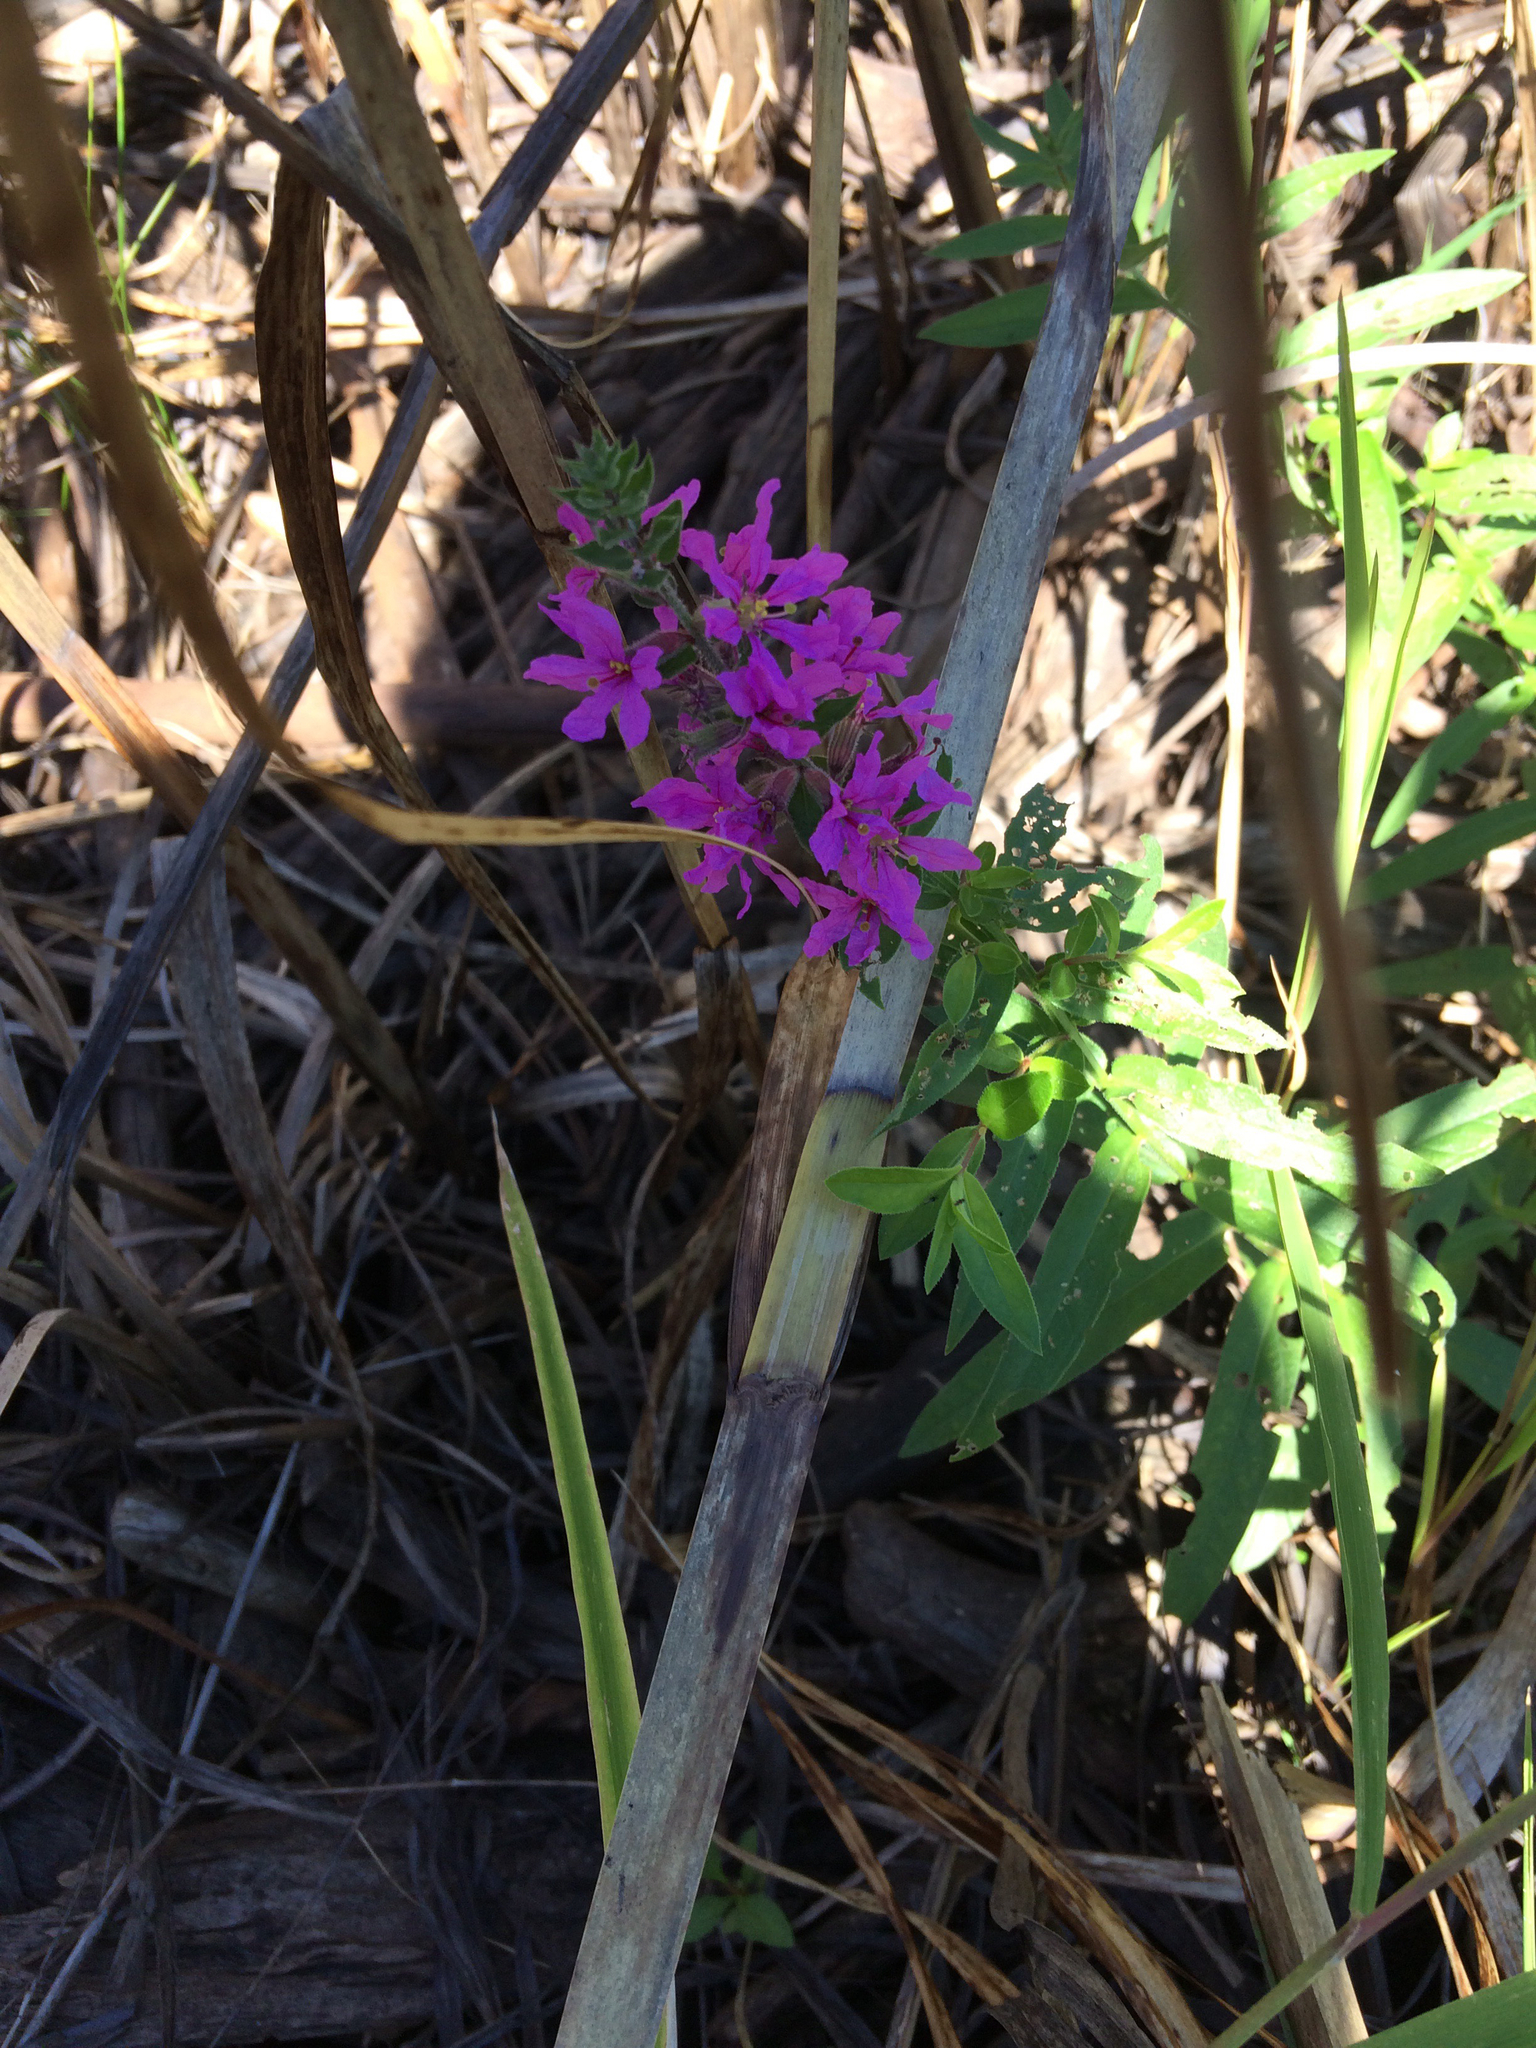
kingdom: Plantae
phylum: Tracheophyta
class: Magnoliopsida
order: Myrtales
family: Lythraceae
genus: Lythrum
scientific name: Lythrum salicaria
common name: Purple loosestrife
